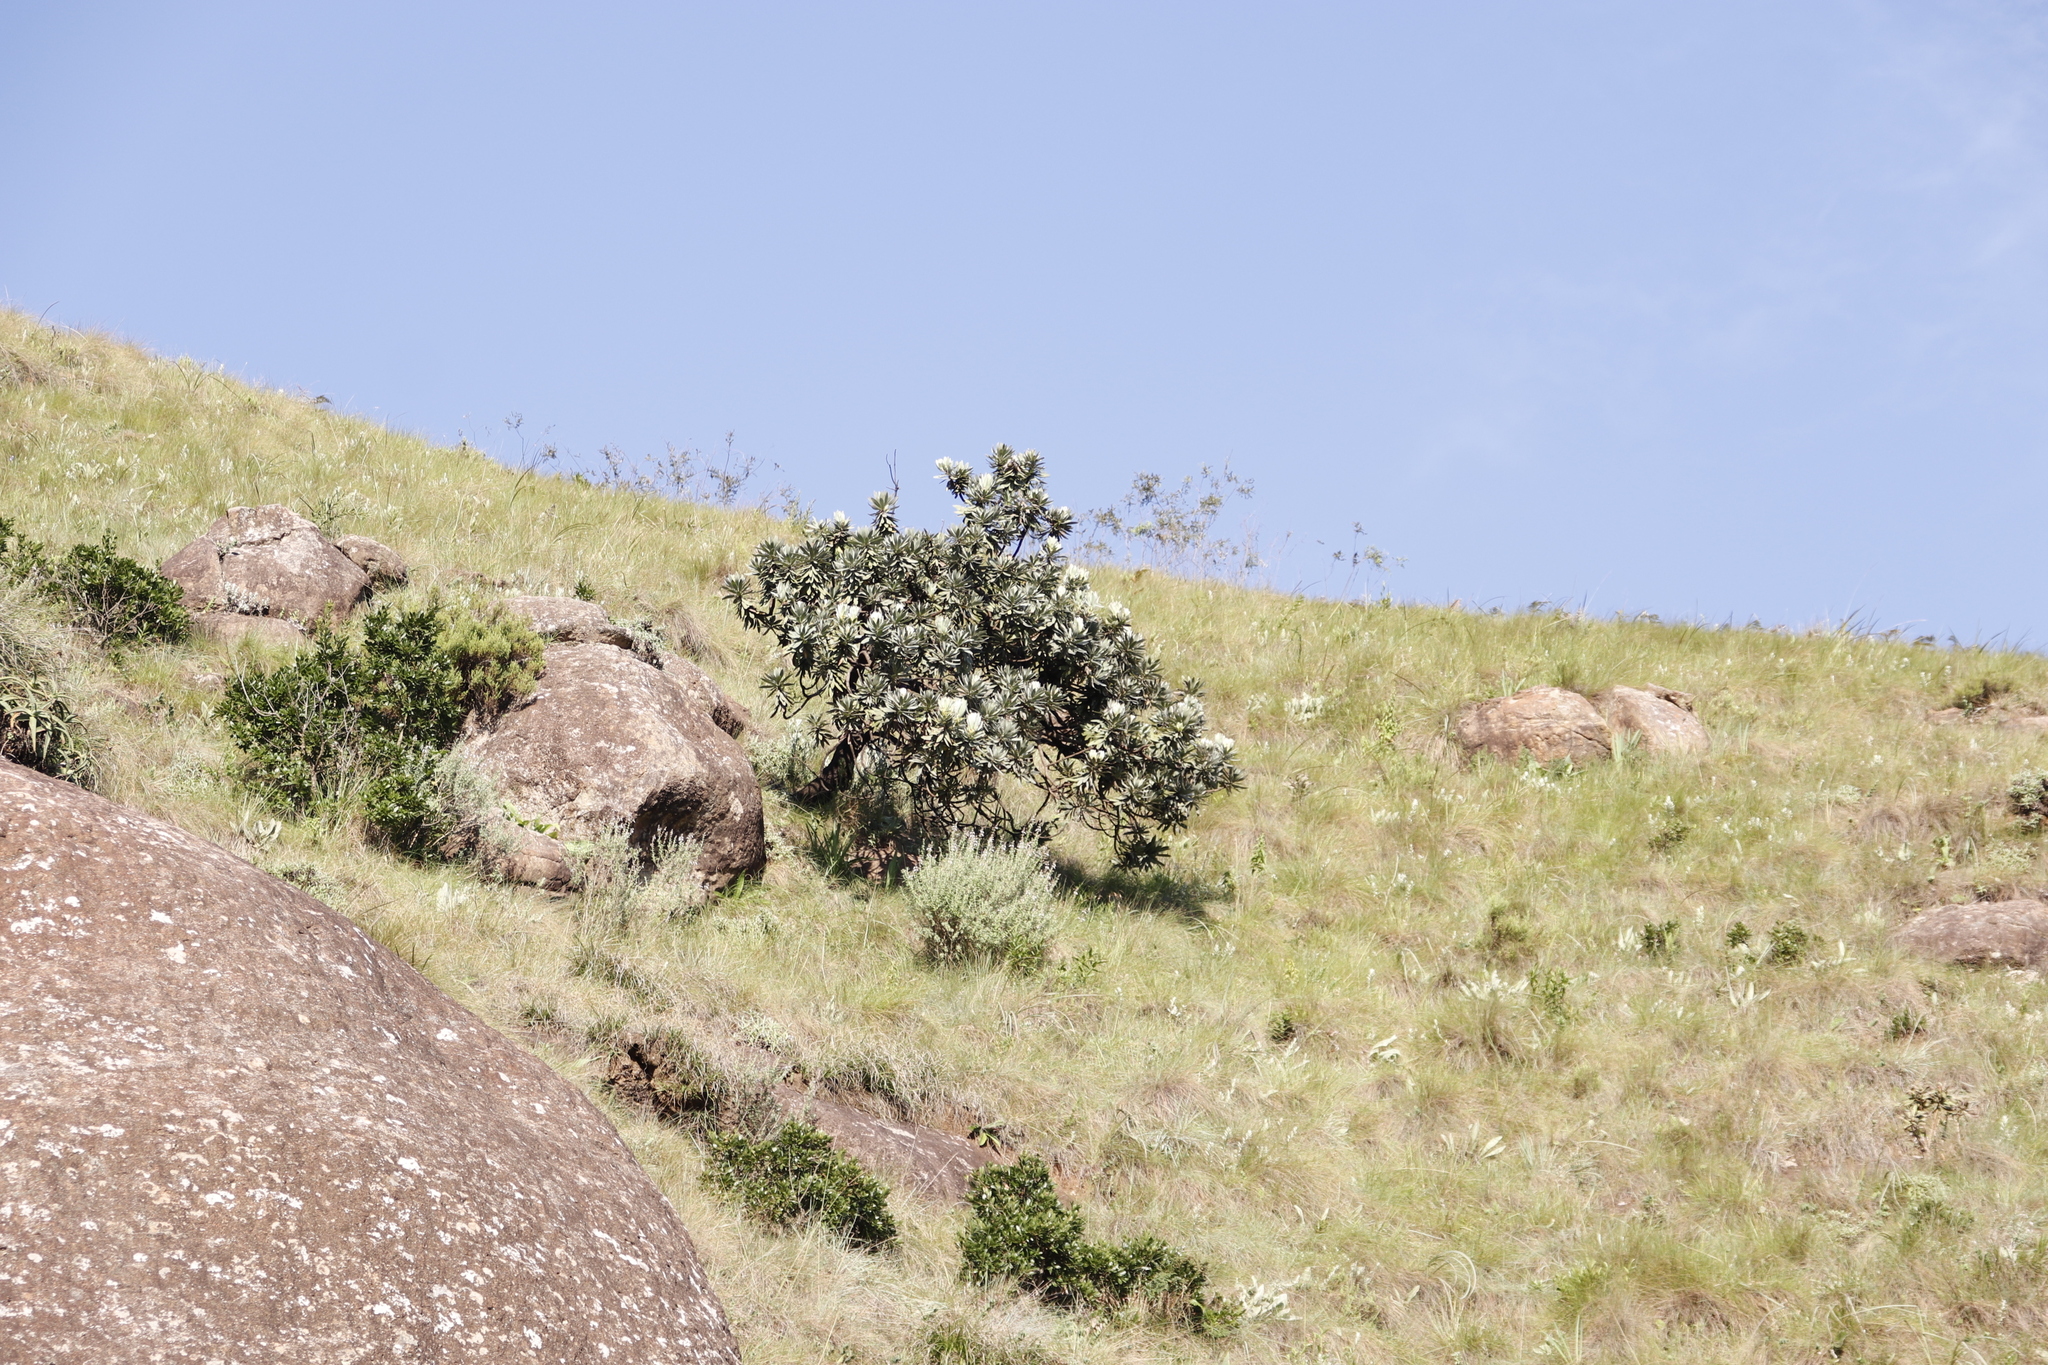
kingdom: Plantae
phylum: Tracheophyta
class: Magnoliopsida
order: Proteales
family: Proteaceae
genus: Protea
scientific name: Protea roupelliae
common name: Silver sugarbush
